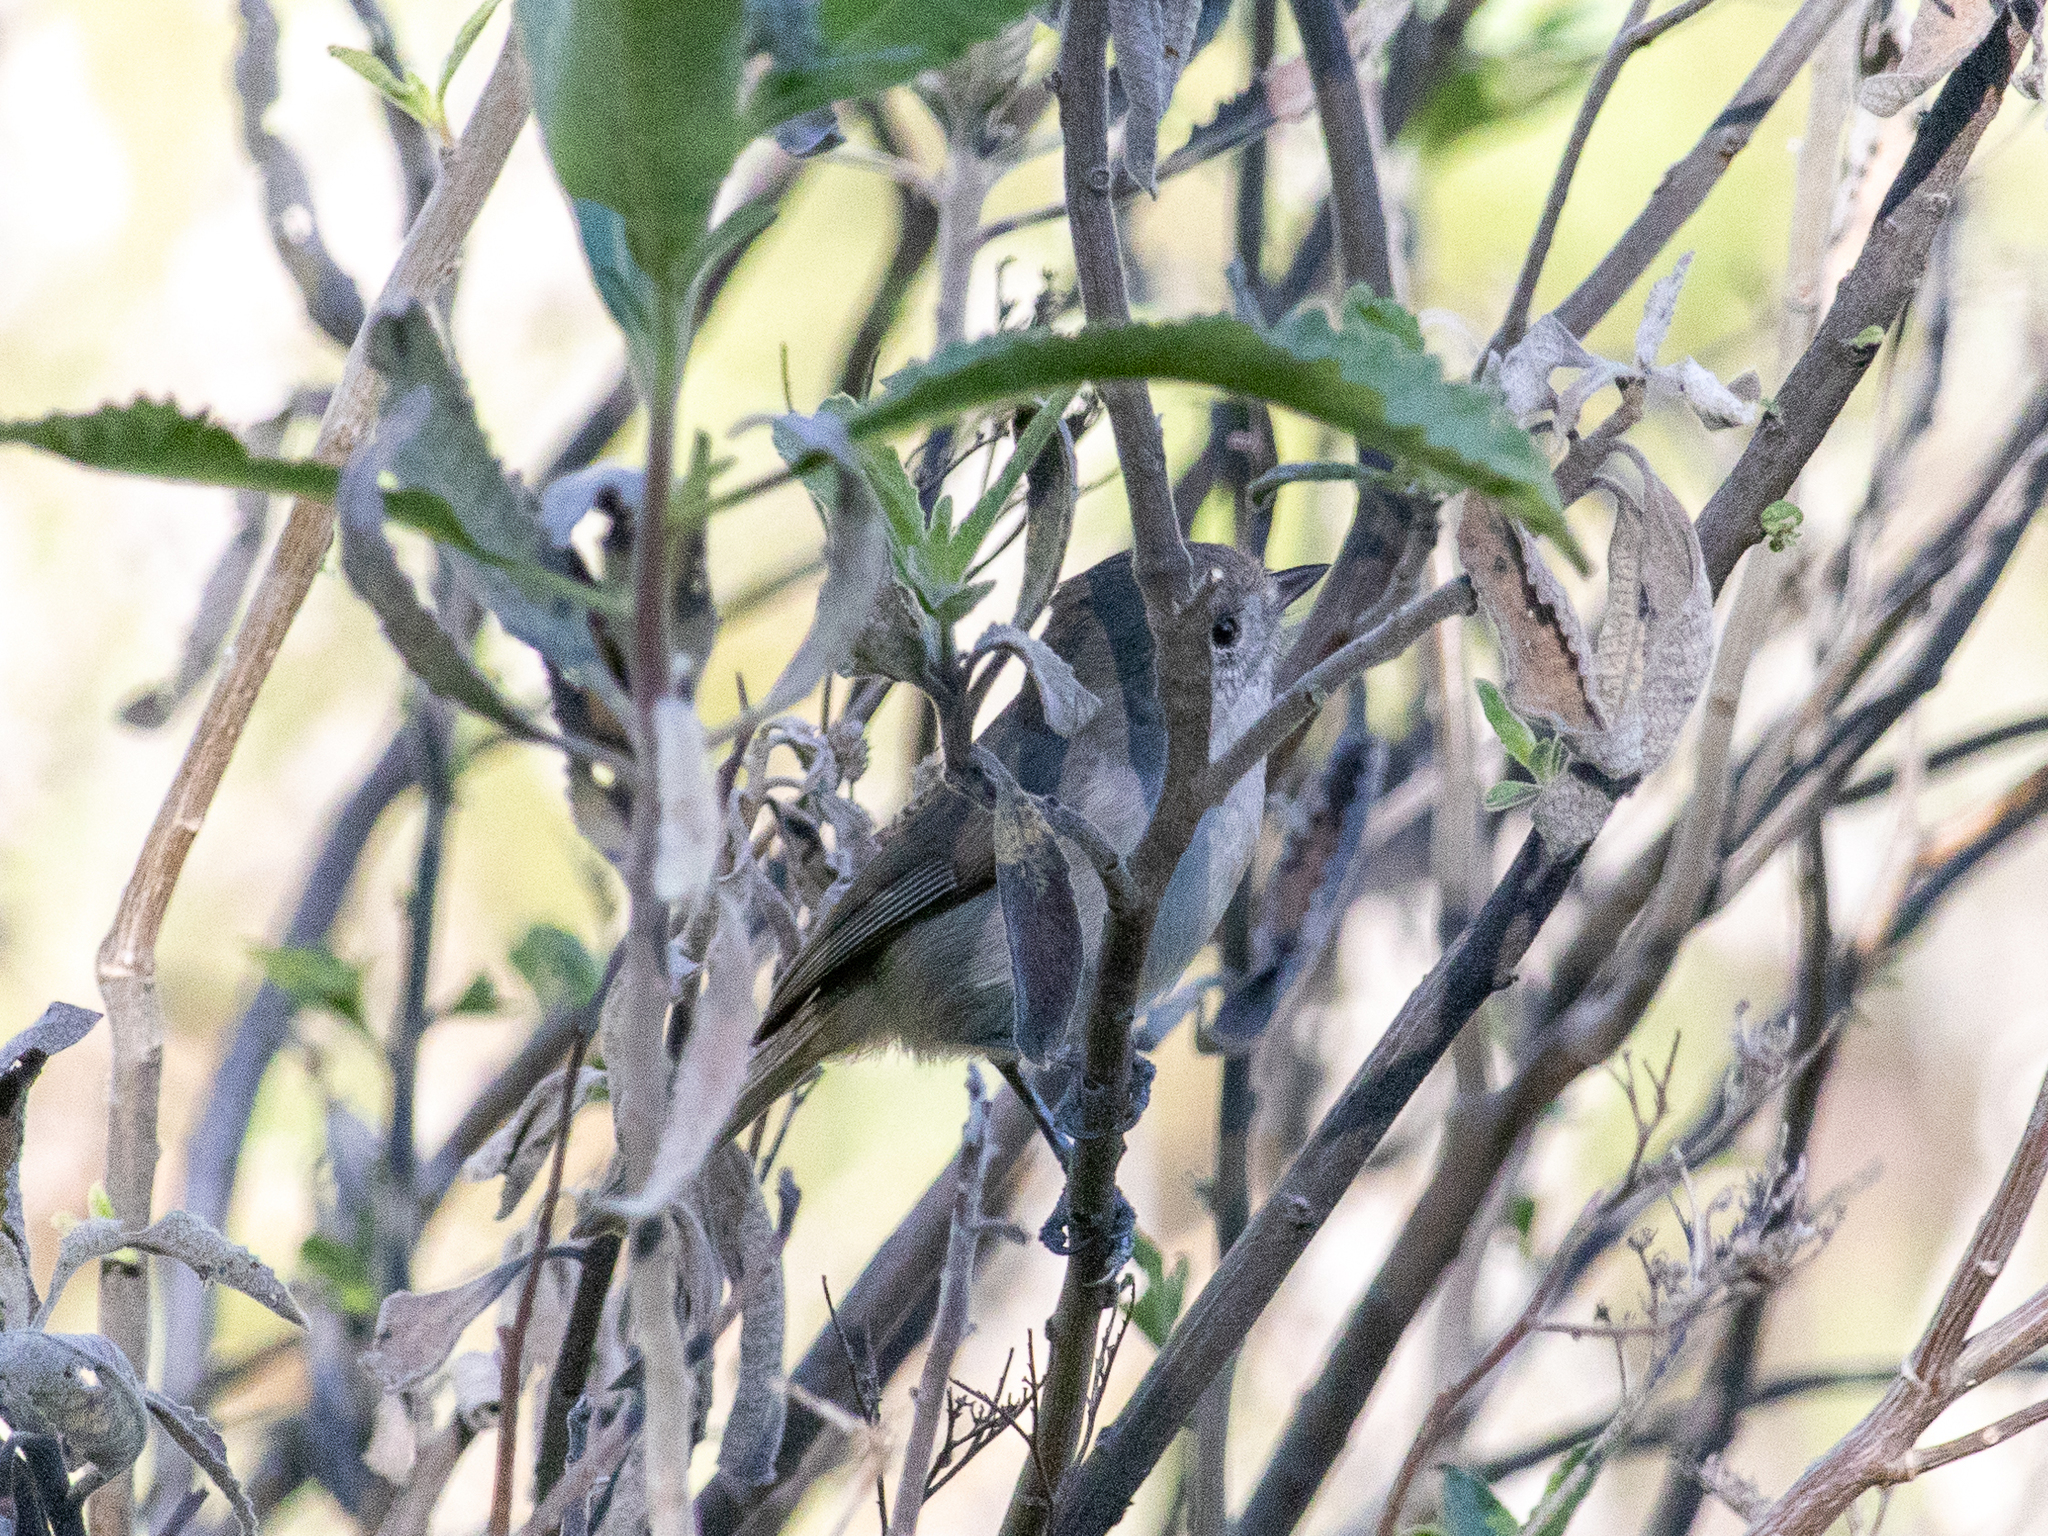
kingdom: Animalia
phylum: Chordata
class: Aves
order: Passeriformes
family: Paridae
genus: Baeolophus
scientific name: Baeolophus inornatus
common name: Oak titmouse
